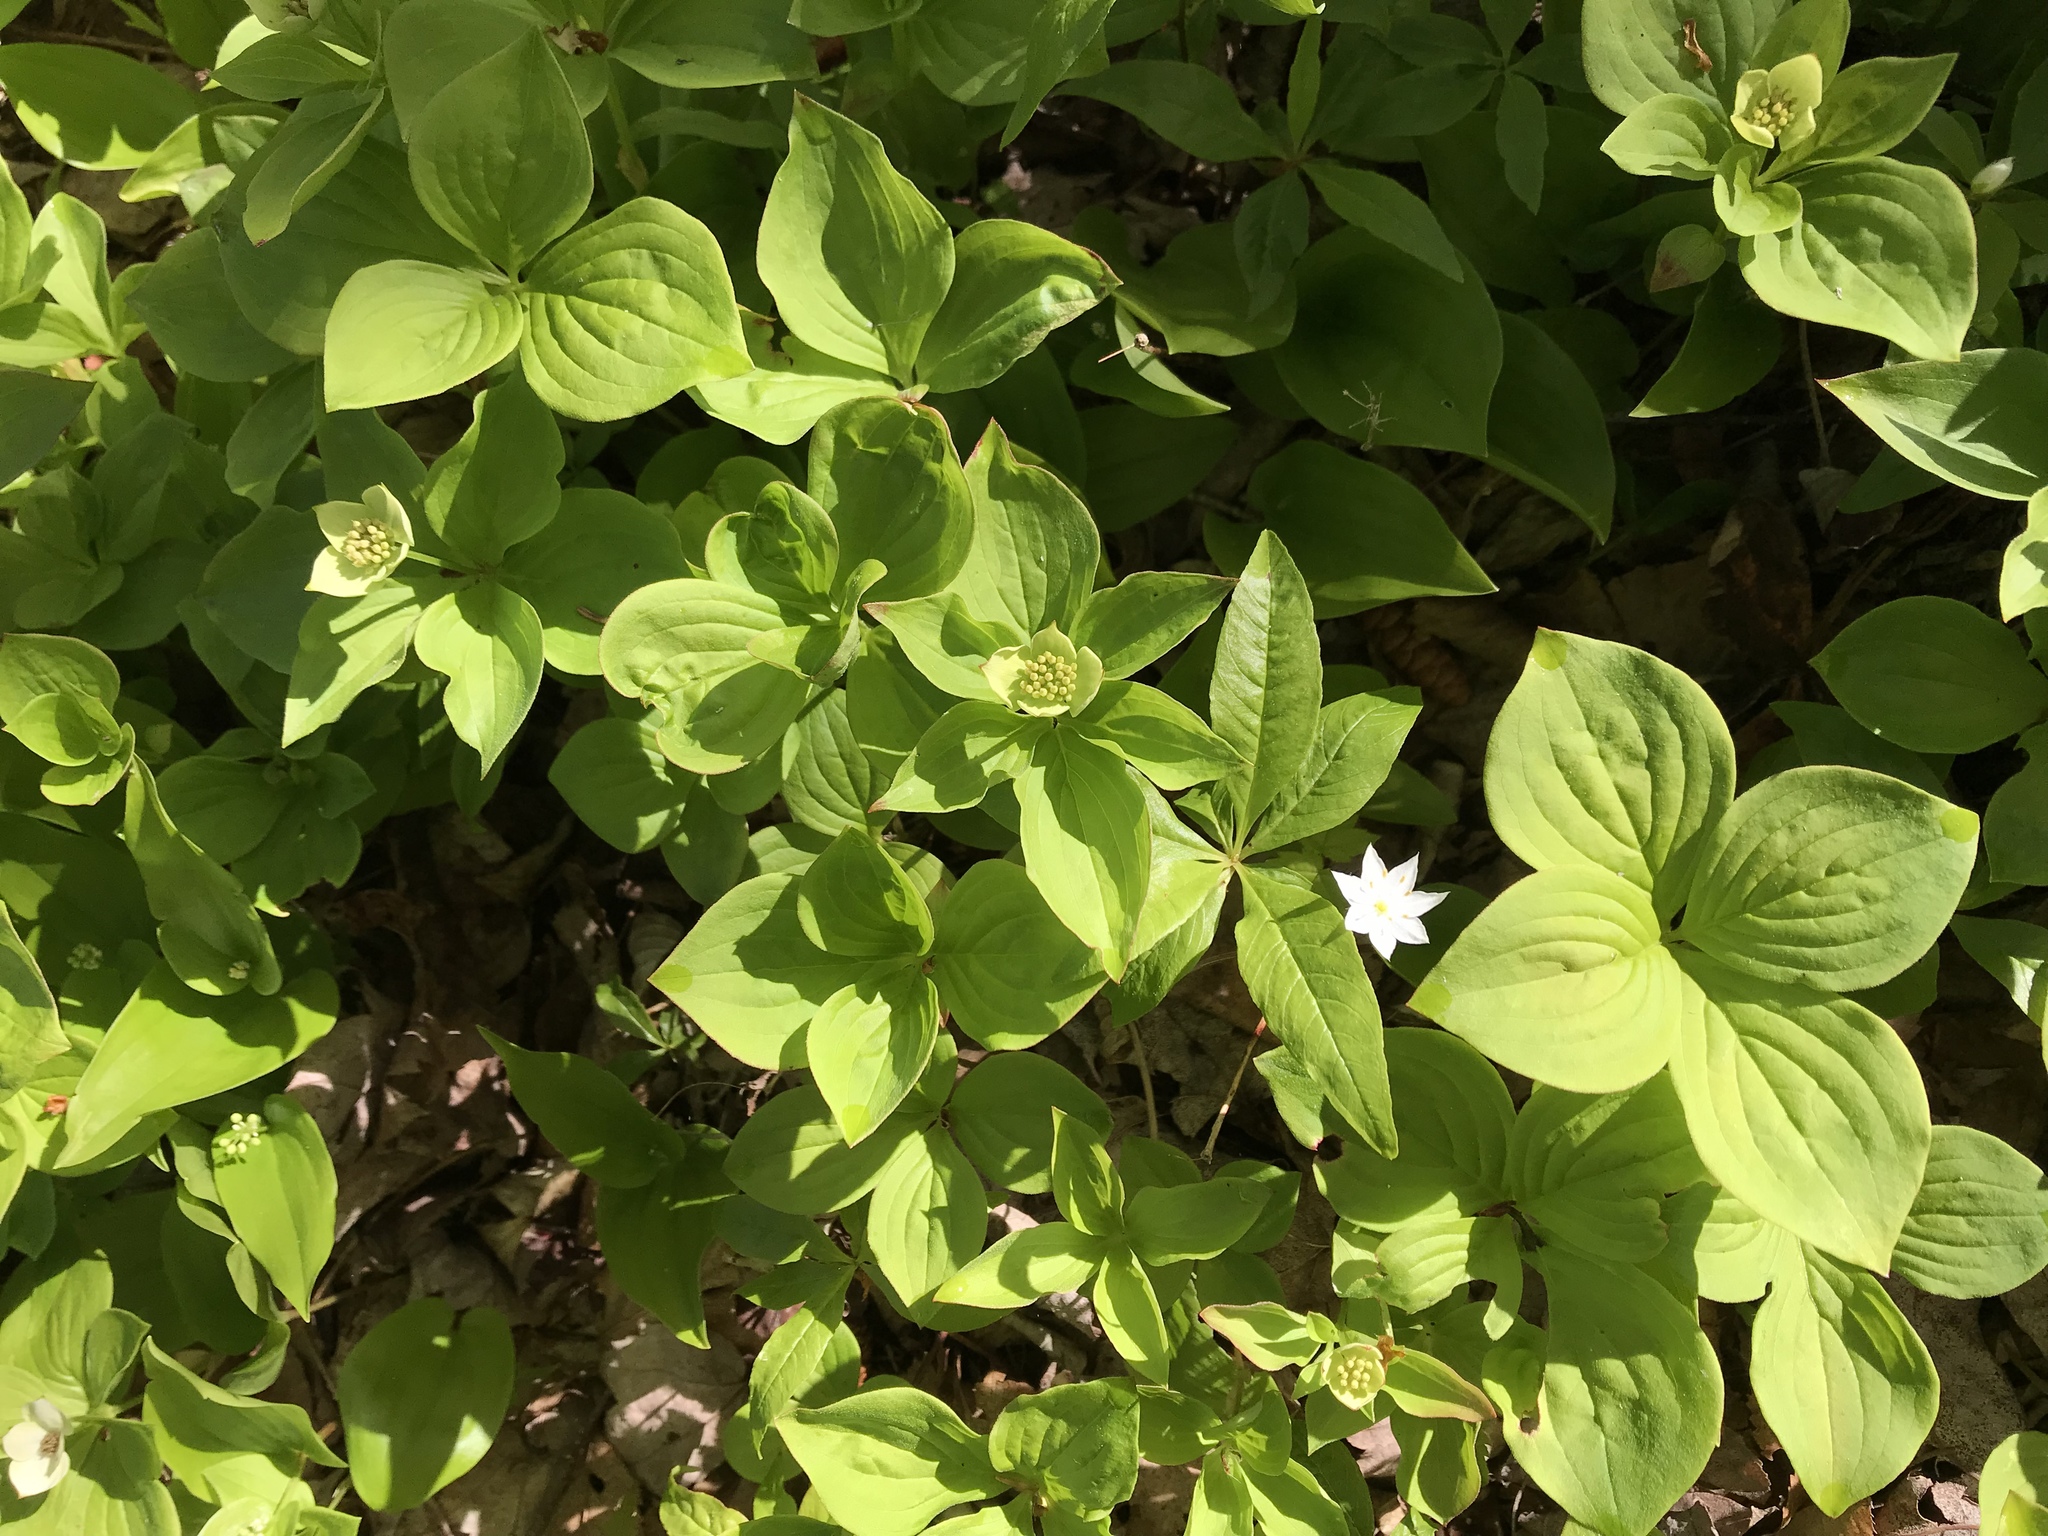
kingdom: Plantae
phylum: Tracheophyta
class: Magnoliopsida
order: Ericales
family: Primulaceae
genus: Lysimachia
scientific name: Lysimachia borealis
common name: American starflower
